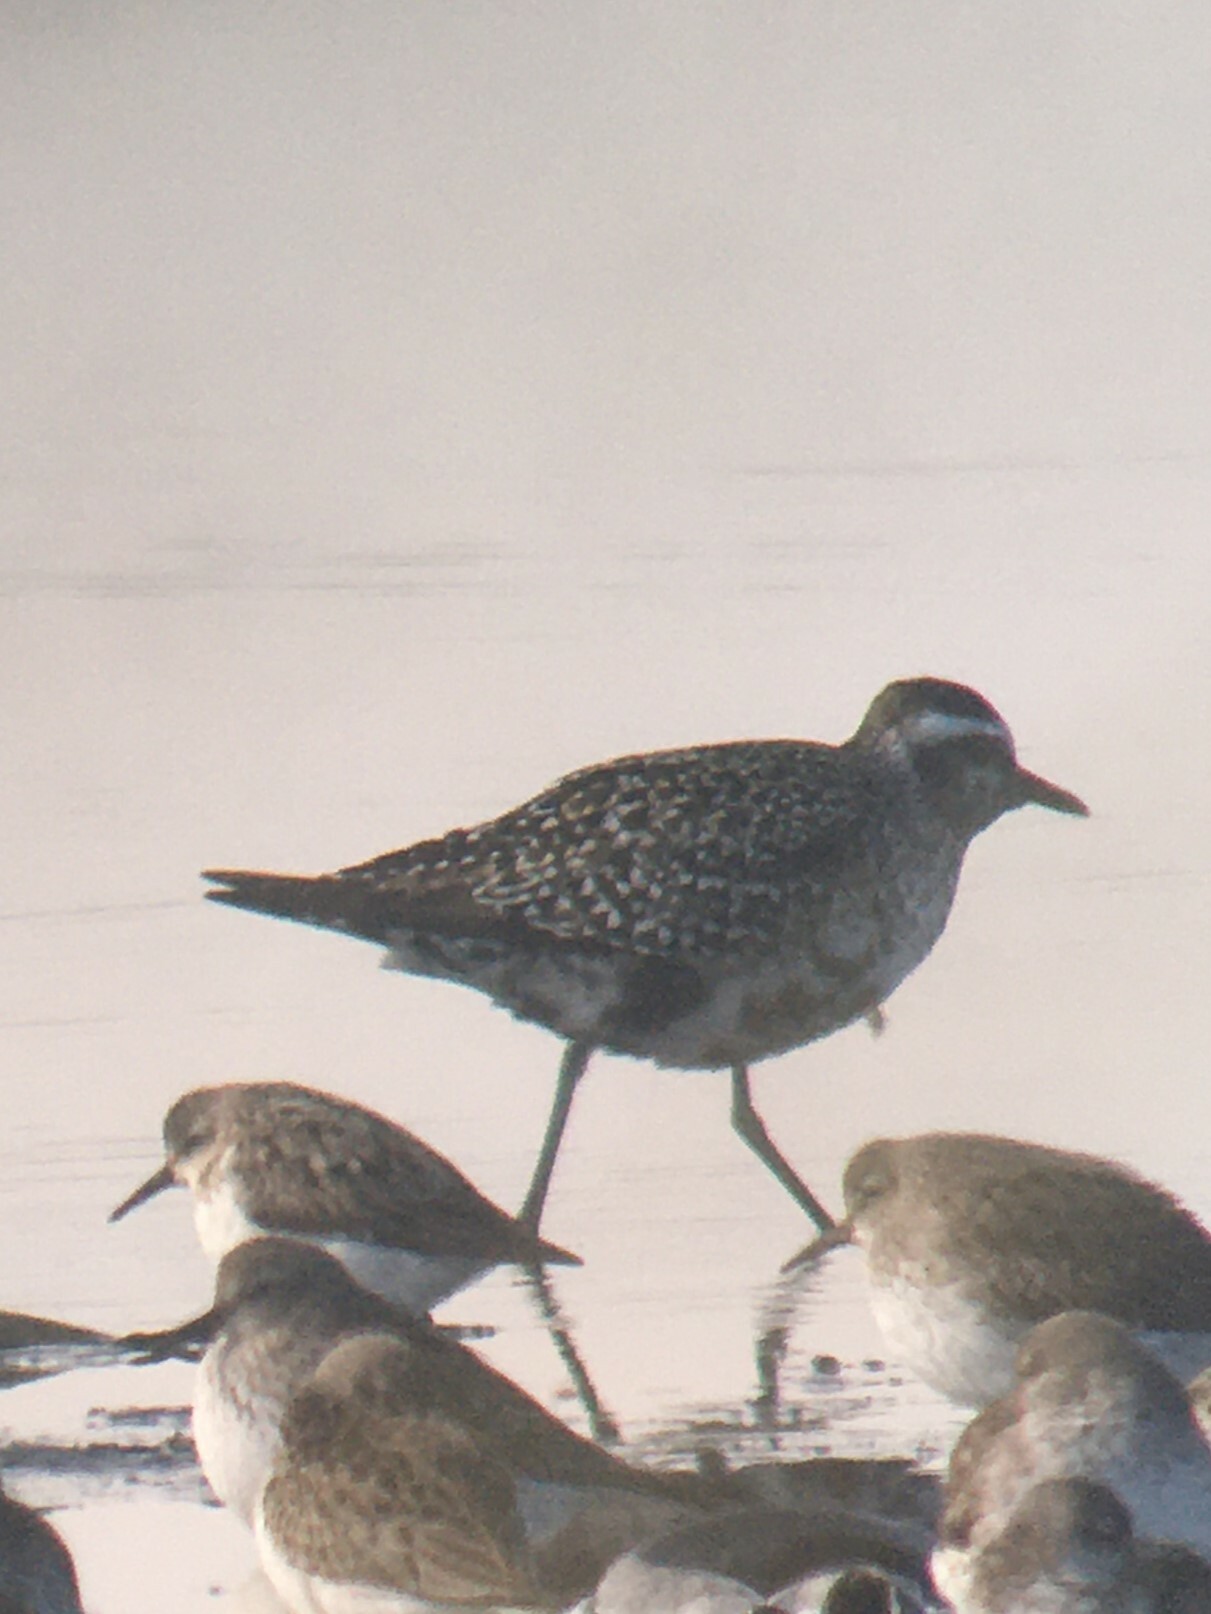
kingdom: Animalia
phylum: Chordata
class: Aves
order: Charadriiformes
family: Charadriidae
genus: Pluvialis
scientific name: Pluvialis dominica
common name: American golden plover
